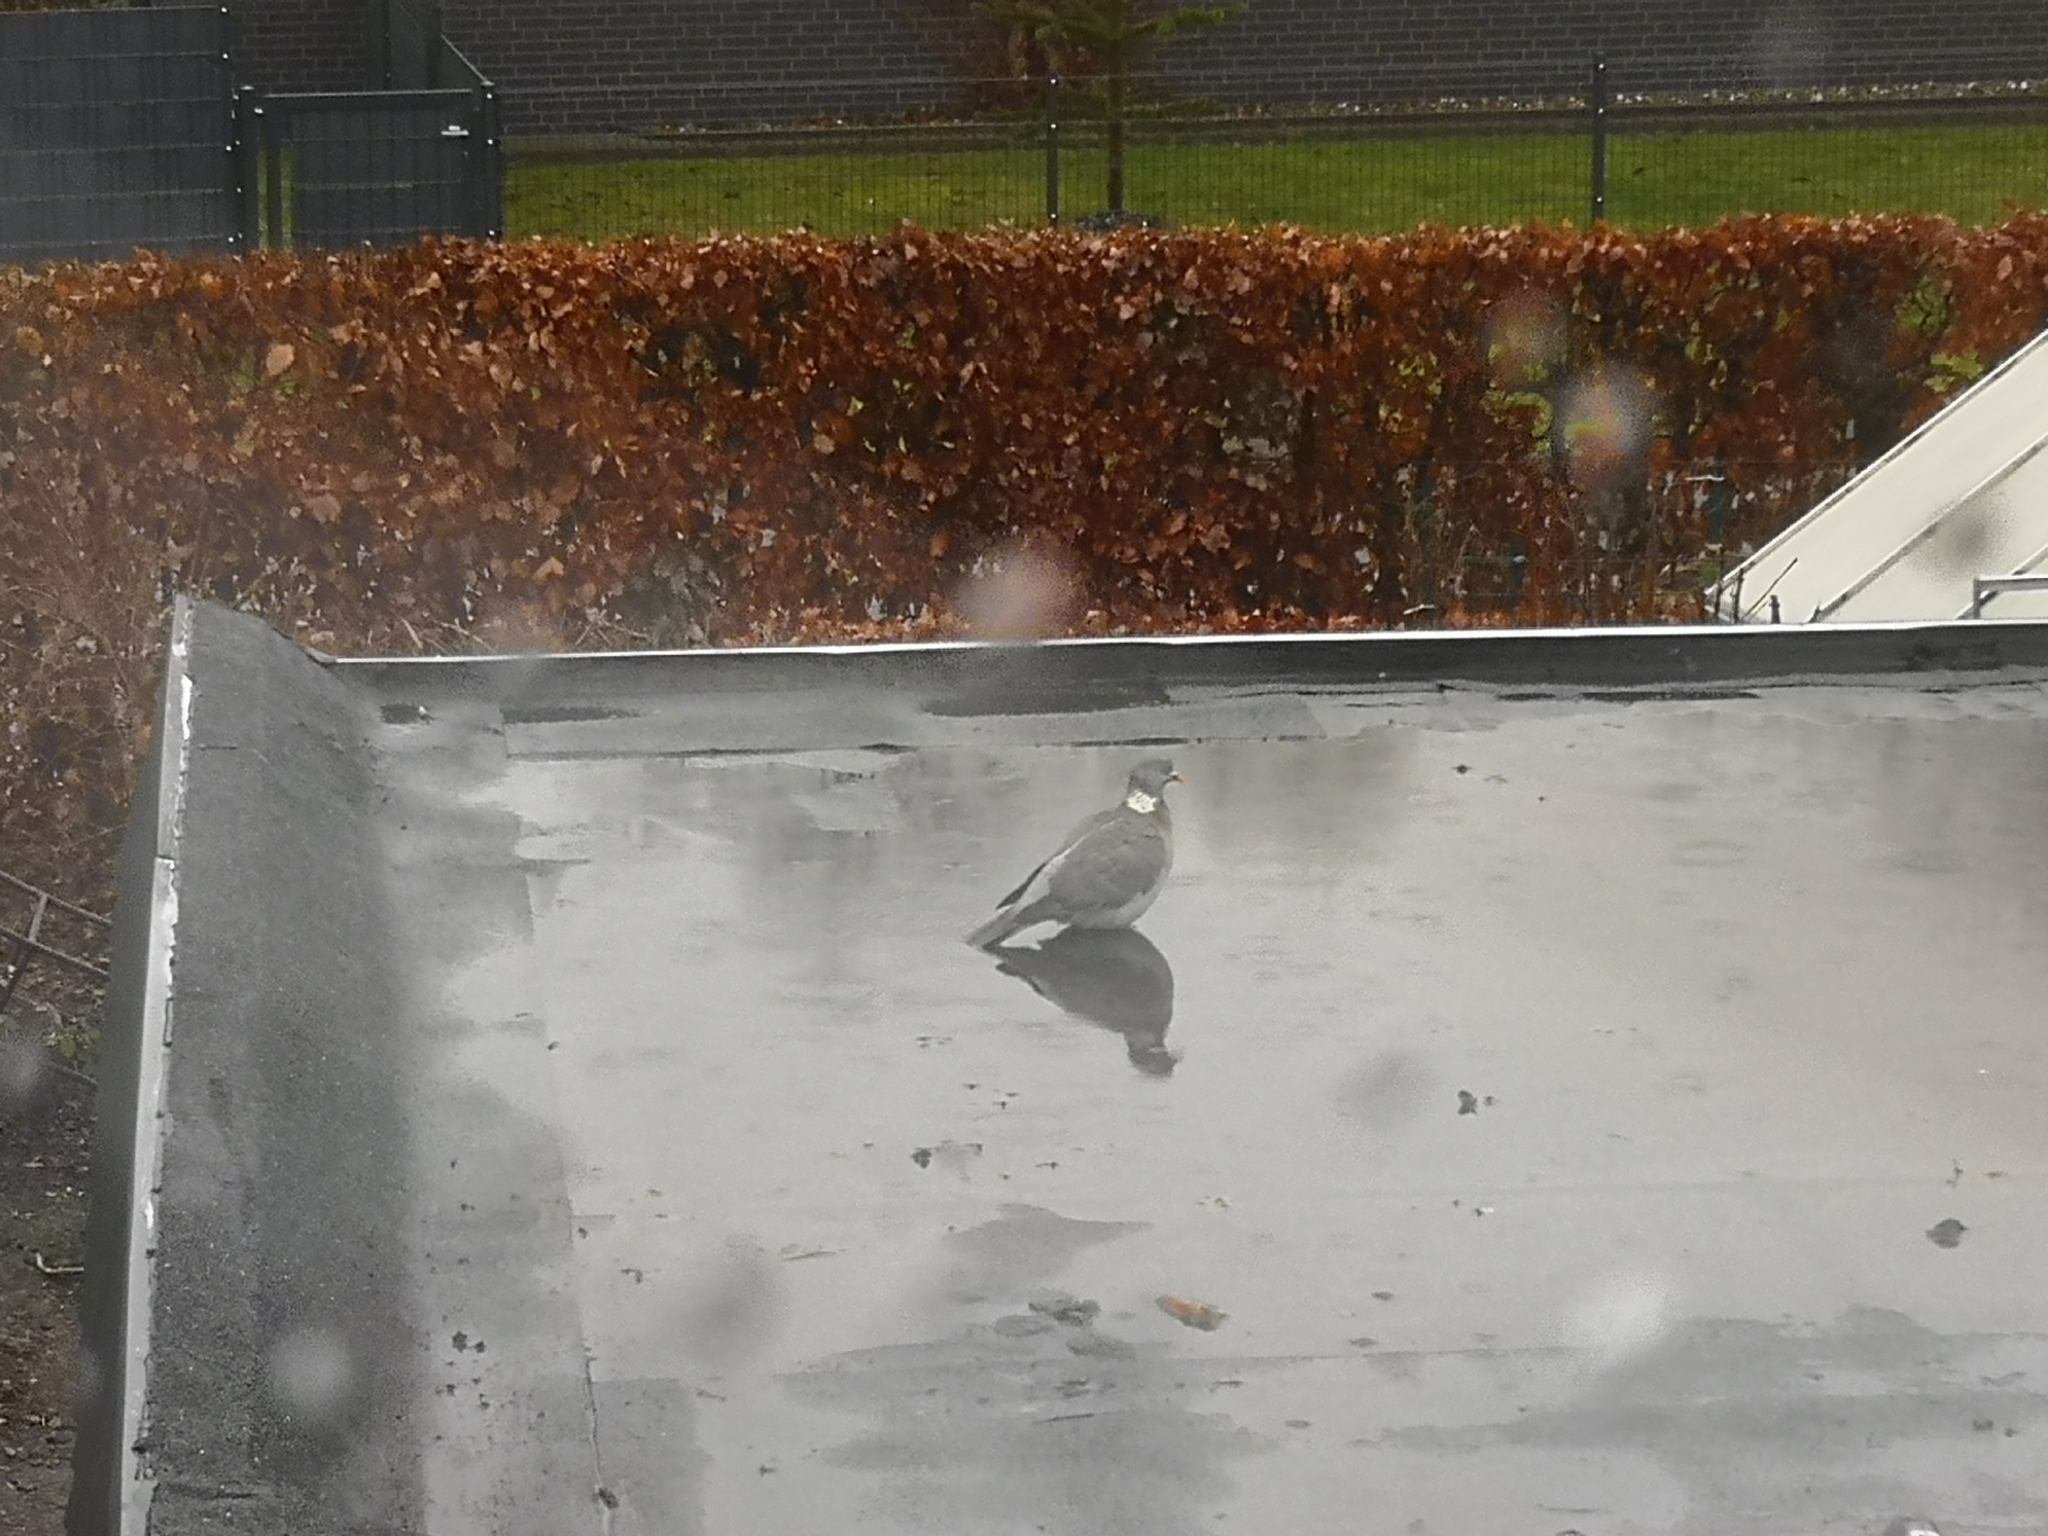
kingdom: Animalia
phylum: Chordata
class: Aves
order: Columbiformes
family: Columbidae
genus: Columba
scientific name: Columba palumbus
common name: Common wood pigeon
